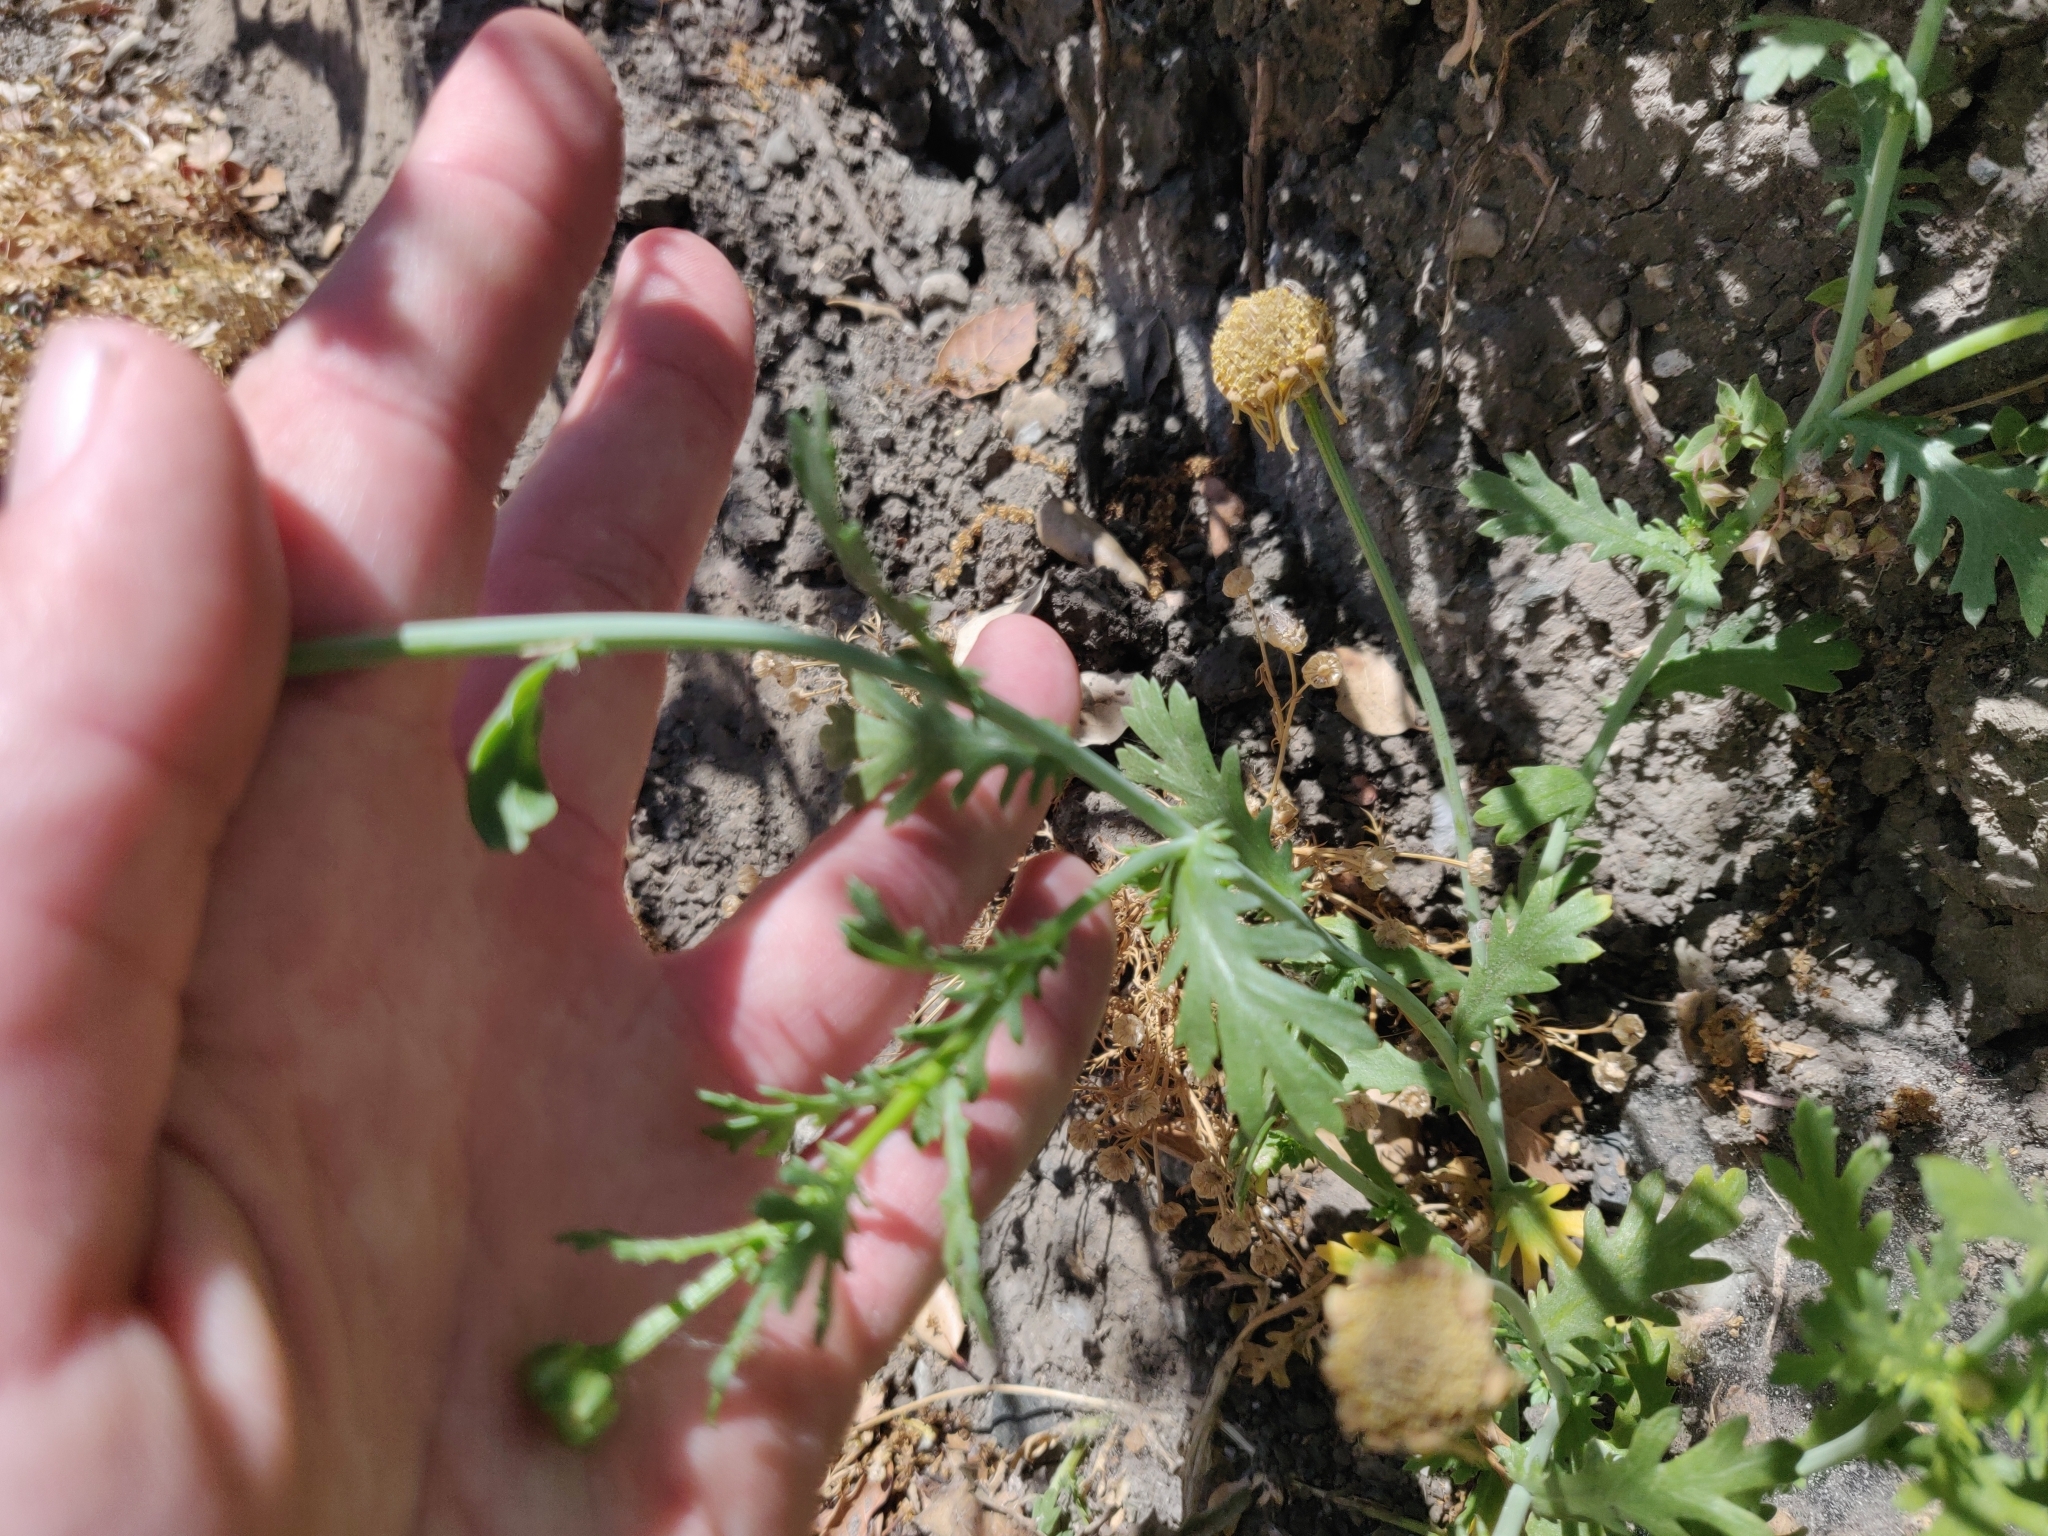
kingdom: Plantae
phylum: Tracheophyta
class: Magnoliopsida
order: Asterales
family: Asteraceae
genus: Glebionis
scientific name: Glebionis coronaria
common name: Crowndaisy
